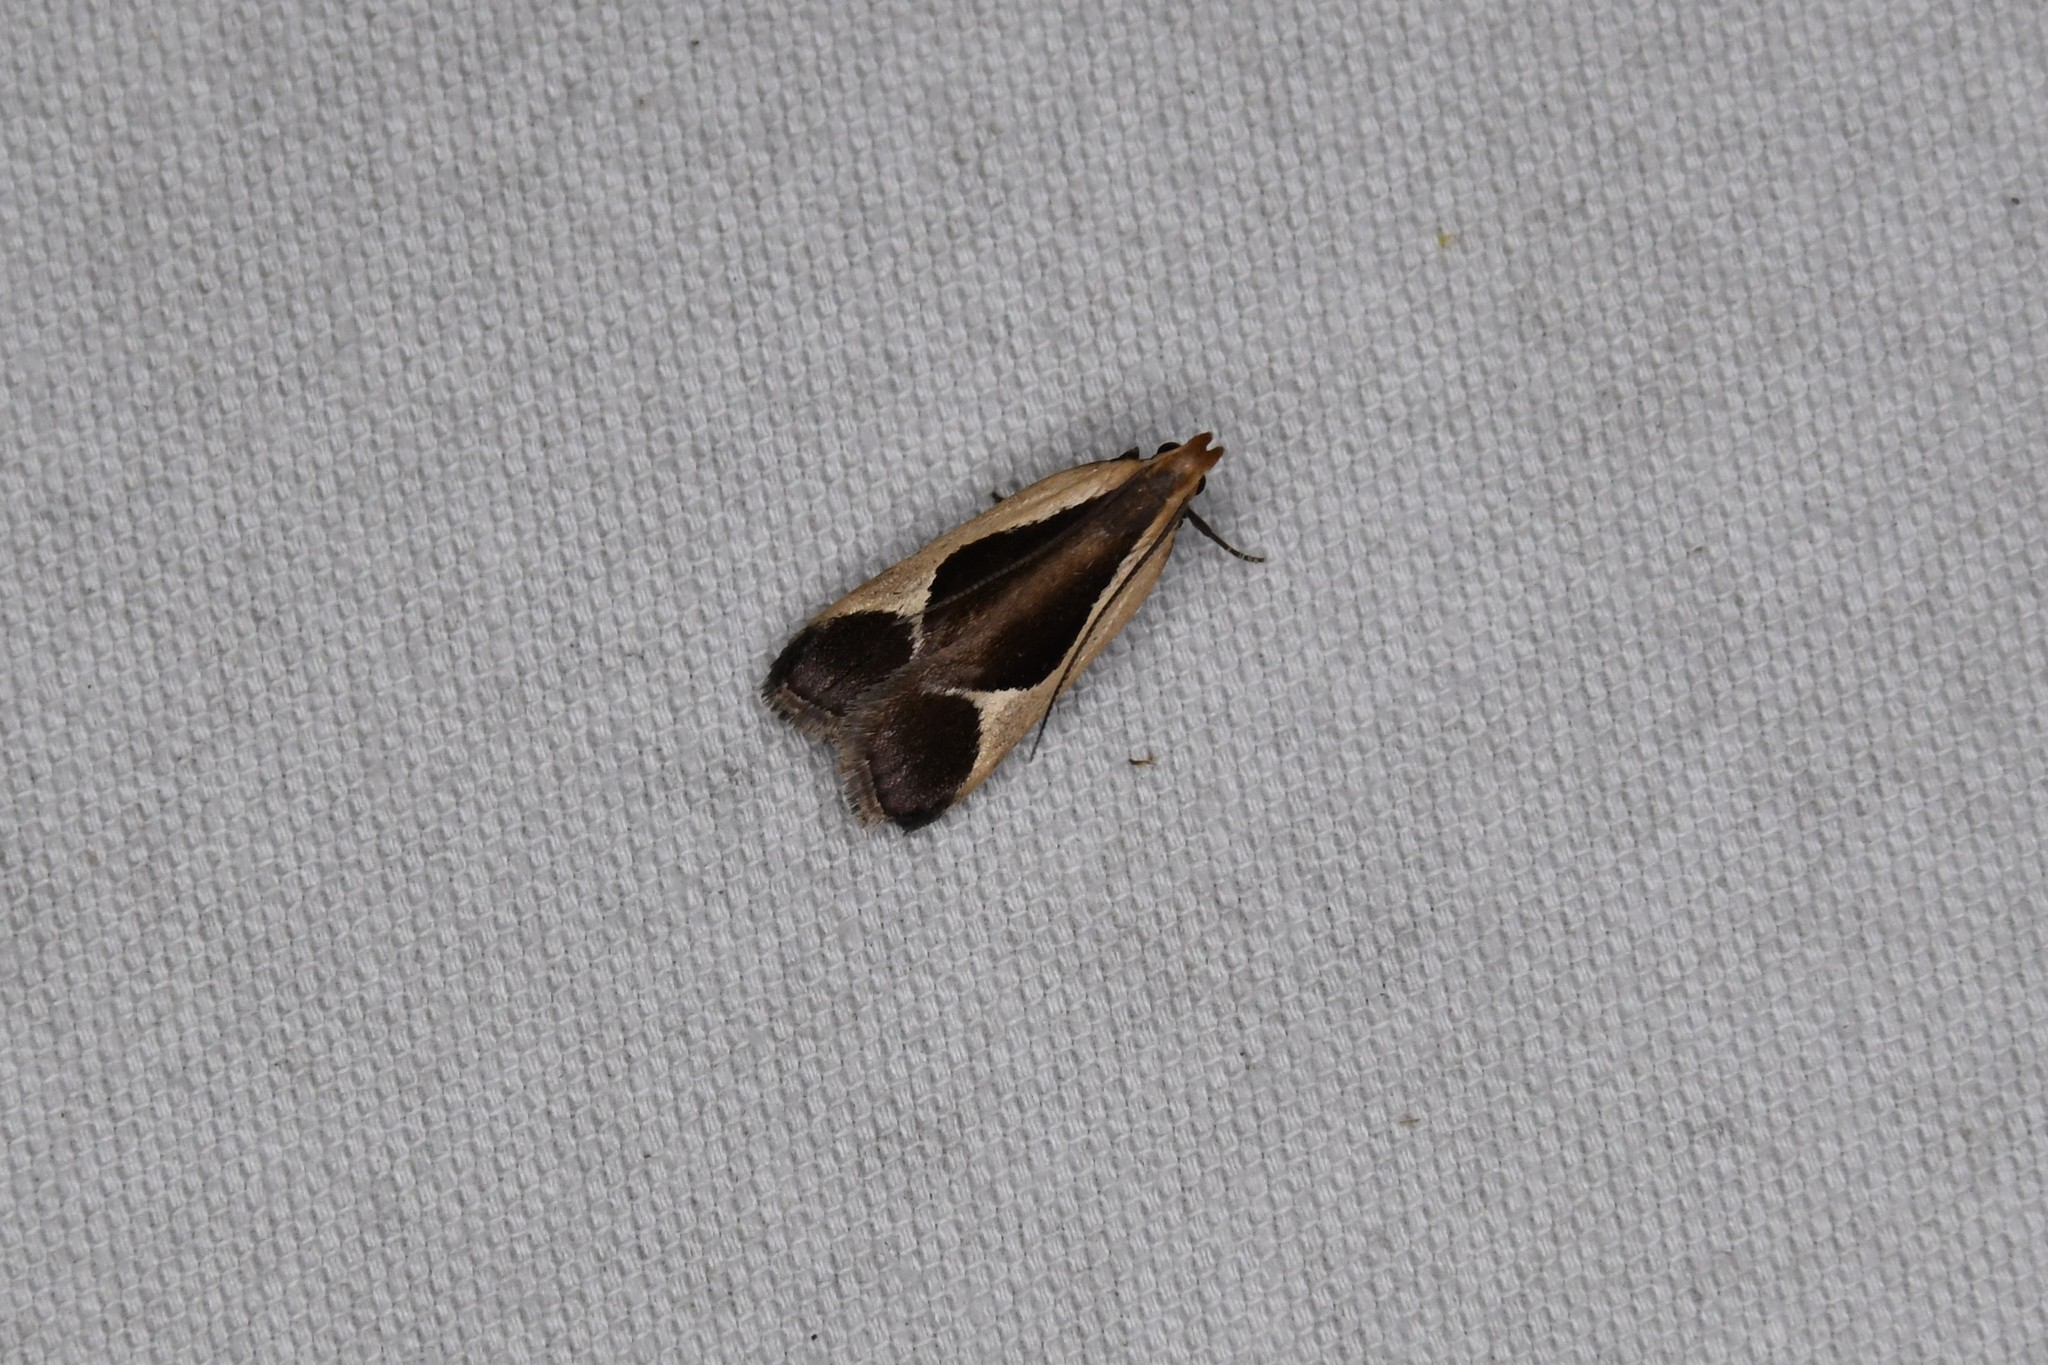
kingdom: Animalia
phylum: Arthropoda
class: Insecta
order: Lepidoptera
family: Gelechiidae
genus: Dichomeris
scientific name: Dichomeris flavocostella
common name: Cream-edged dichomeris moth
